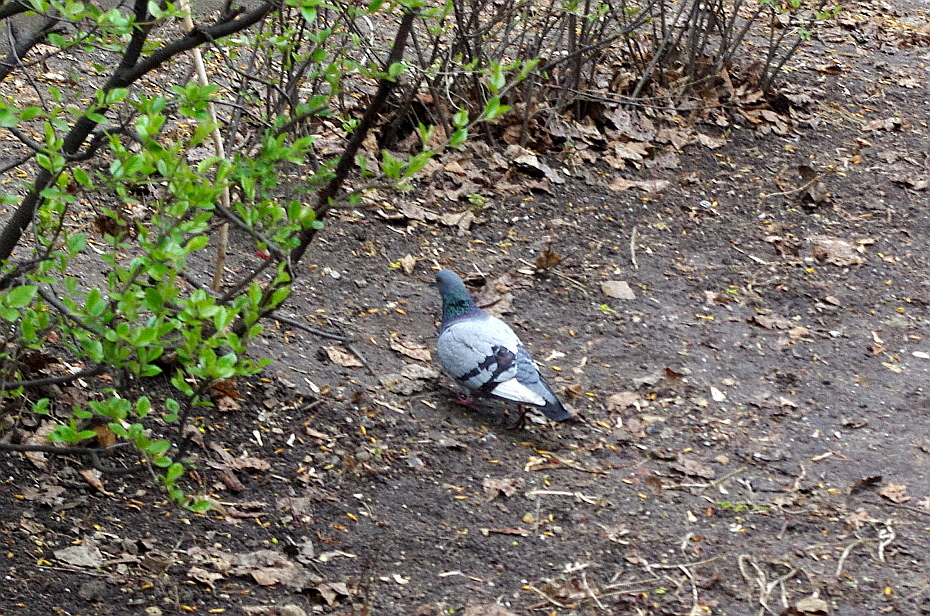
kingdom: Animalia
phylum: Chordata
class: Aves
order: Columbiformes
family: Columbidae
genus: Columba
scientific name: Columba livia
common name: Rock pigeon
